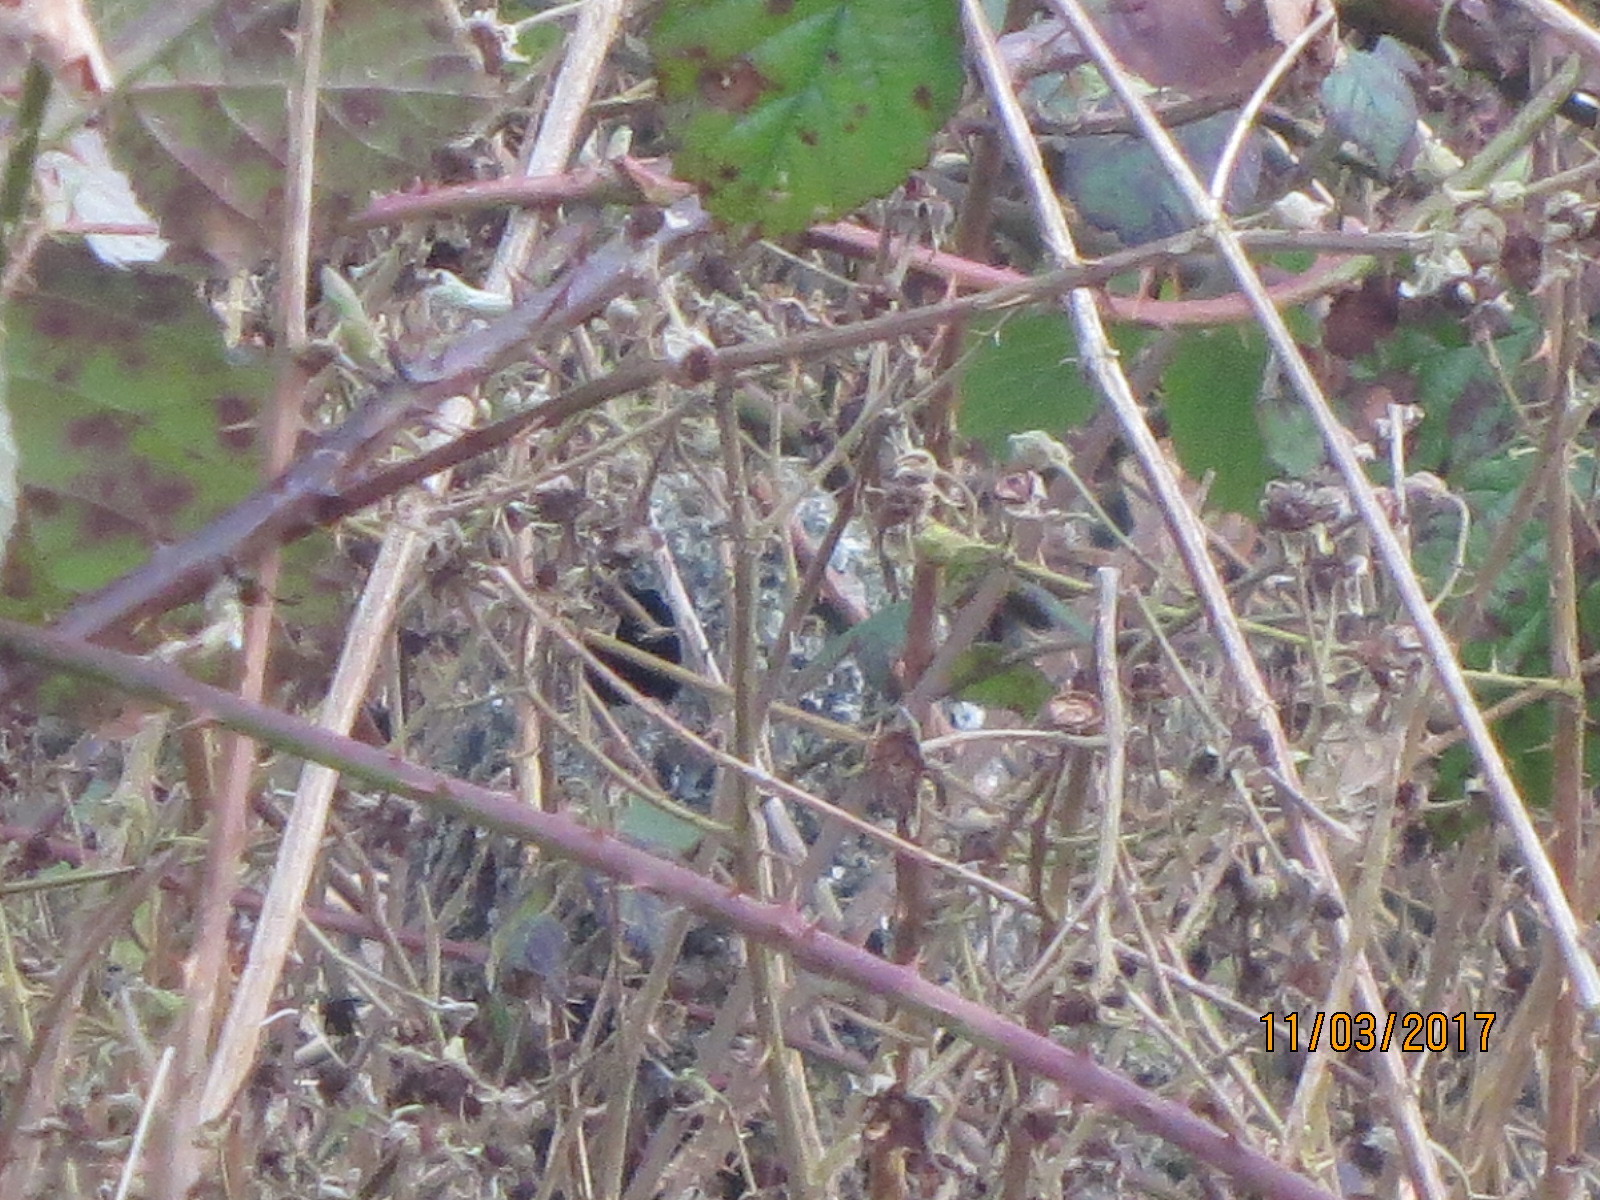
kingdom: Animalia
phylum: Chordata
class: Aves
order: Passeriformes
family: Aegithalidae
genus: Aegithalos
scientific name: Aegithalos caudatus
